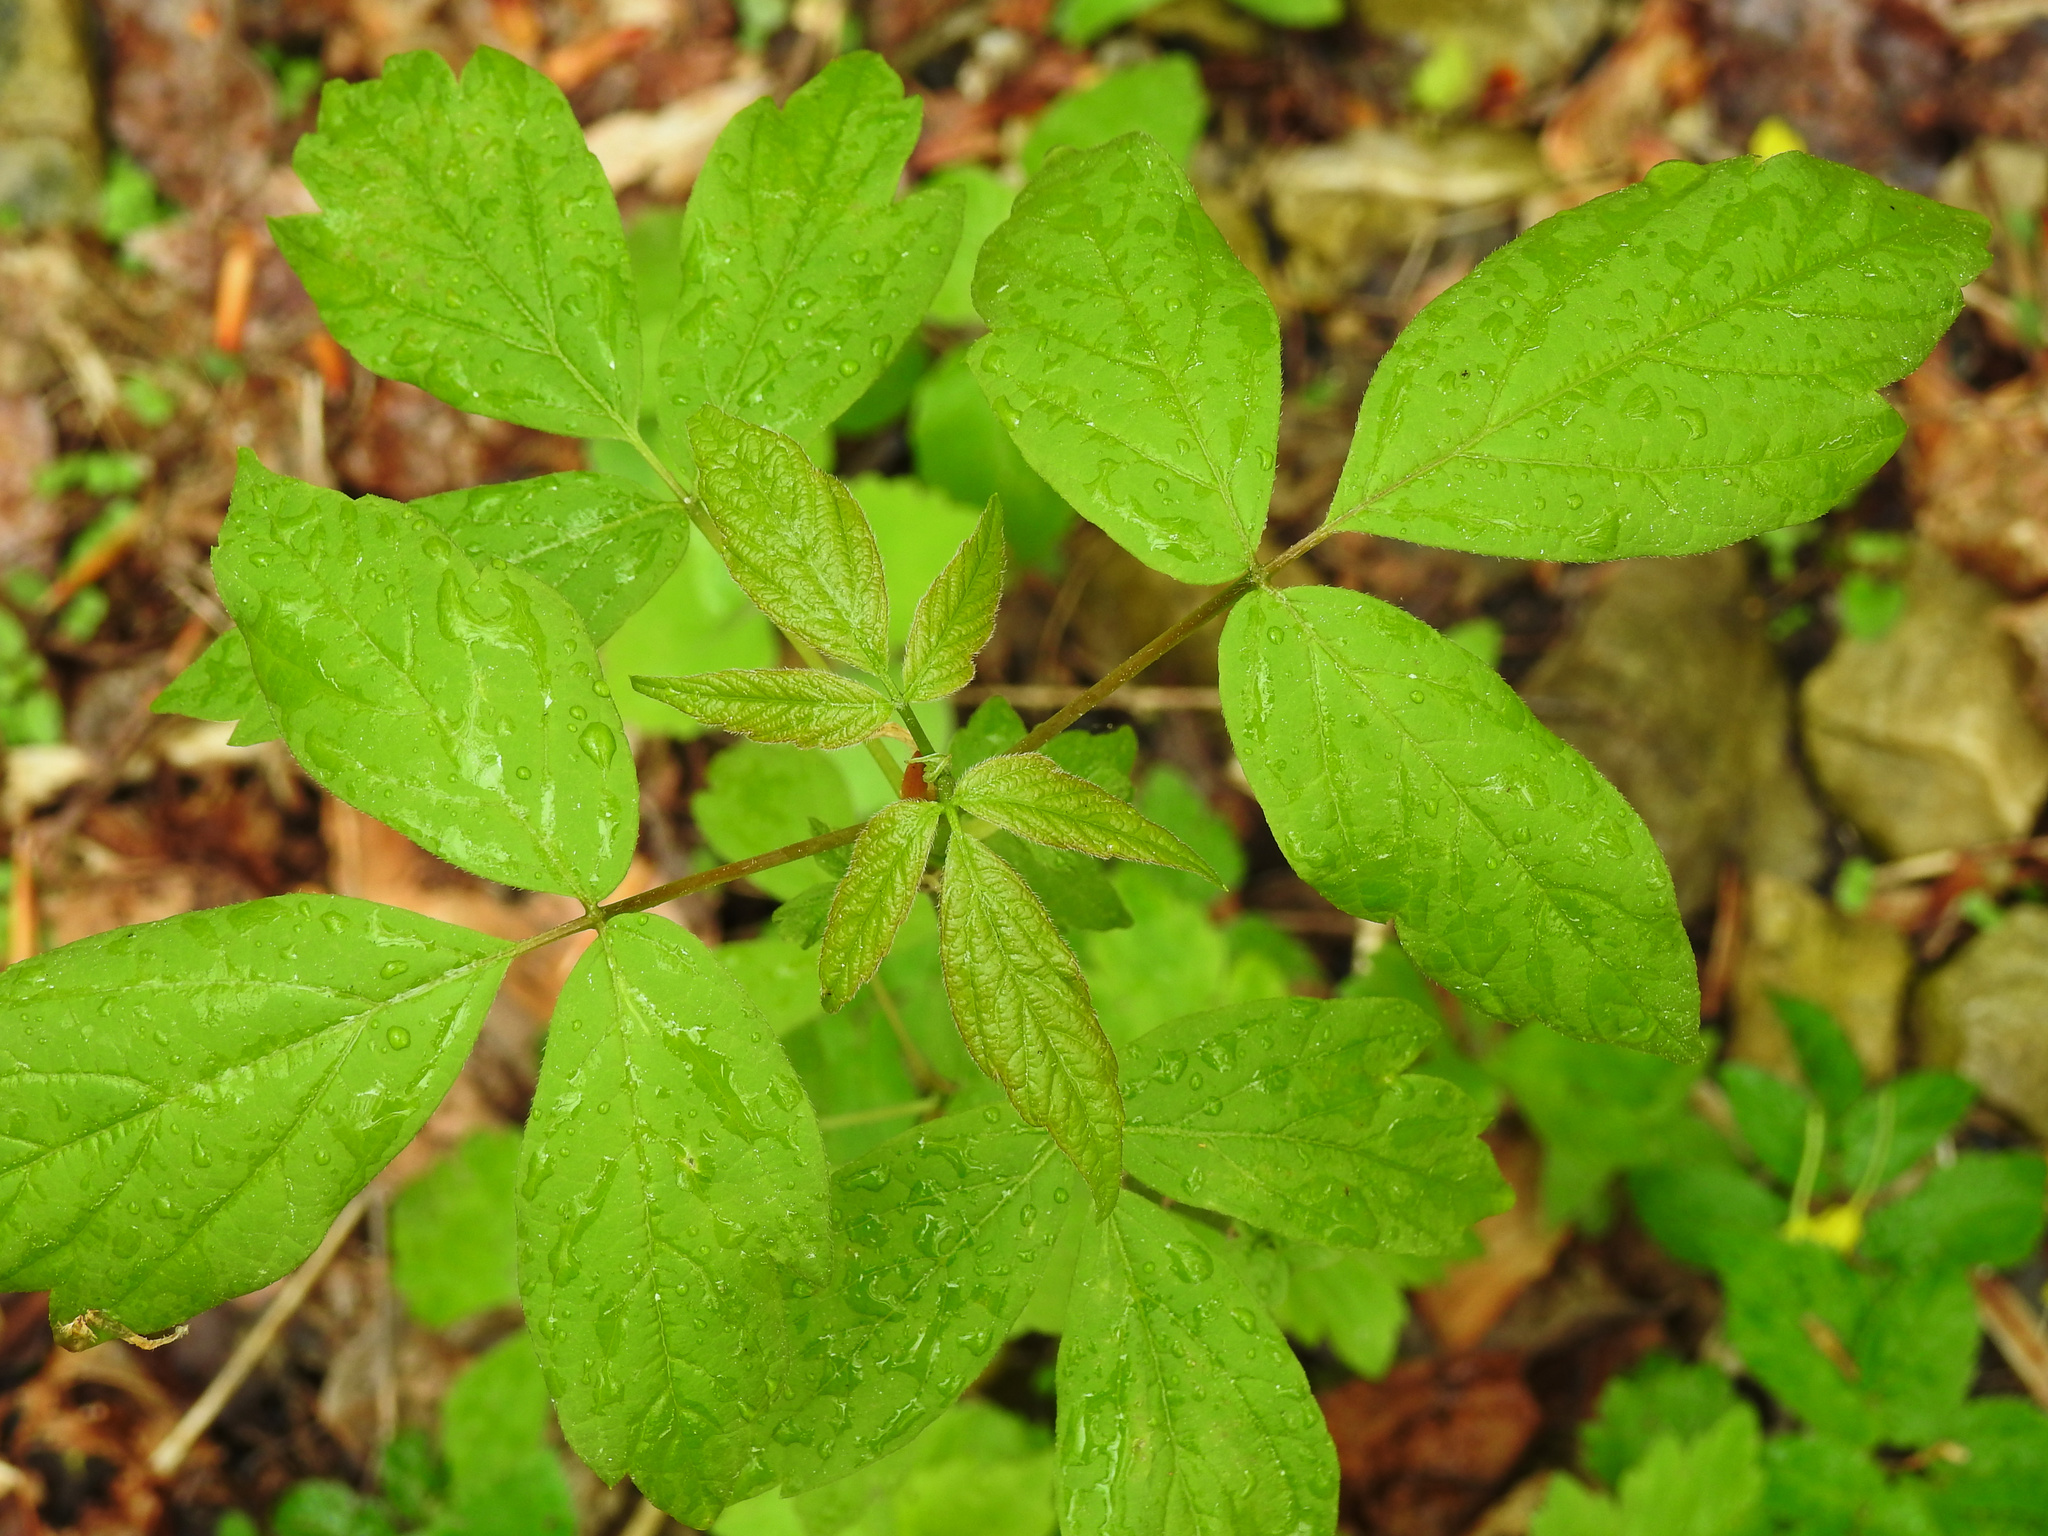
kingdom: Plantae
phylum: Tracheophyta
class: Magnoliopsida
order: Sapindales
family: Sapindaceae
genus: Acer
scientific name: Acer negundo
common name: Ashleaf maple
